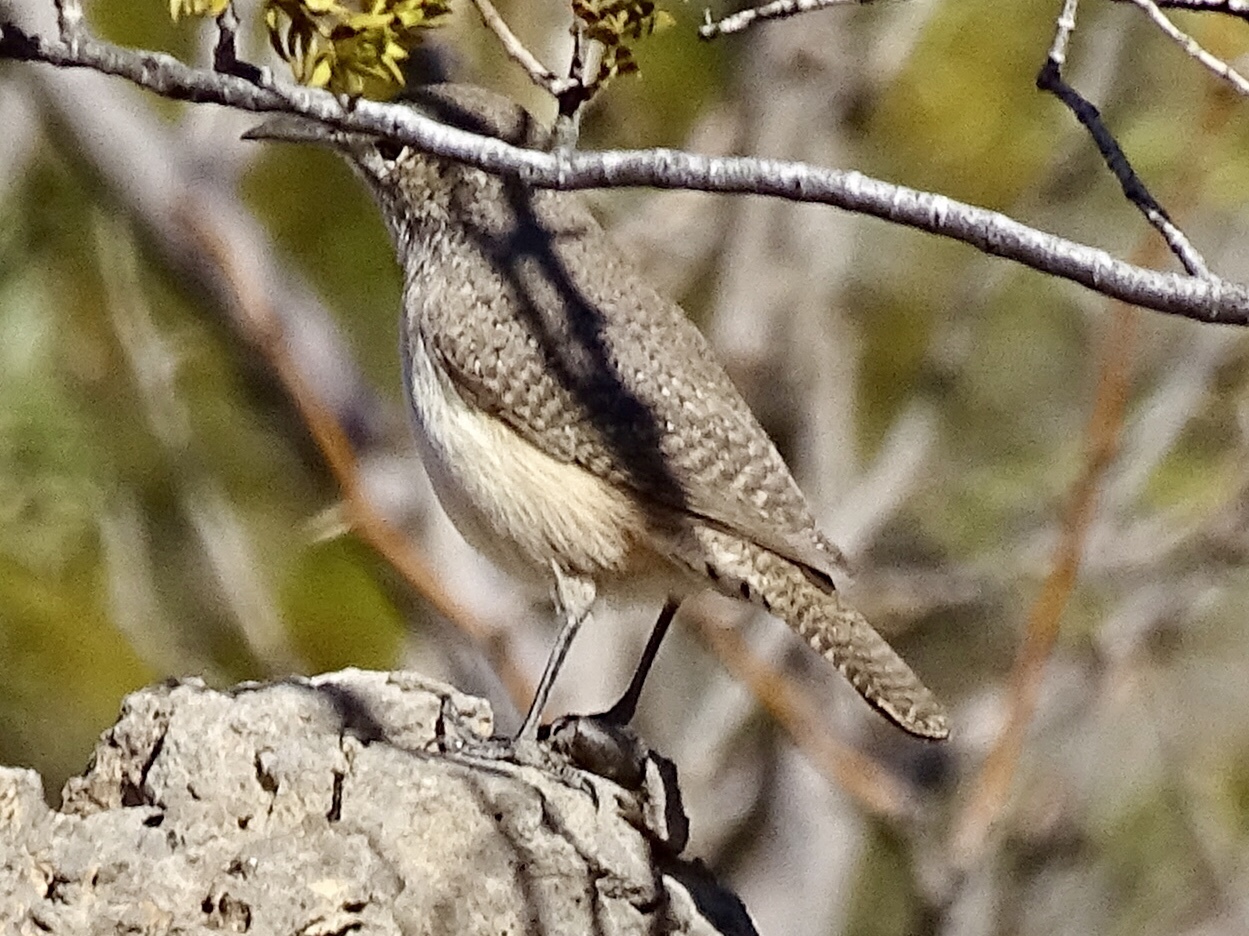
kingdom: Animalia
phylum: Chordata
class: Aves
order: Passeriformes
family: Troglodytidae
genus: Salpinctes
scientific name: Salpinctes obsoletus
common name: Rock wren
